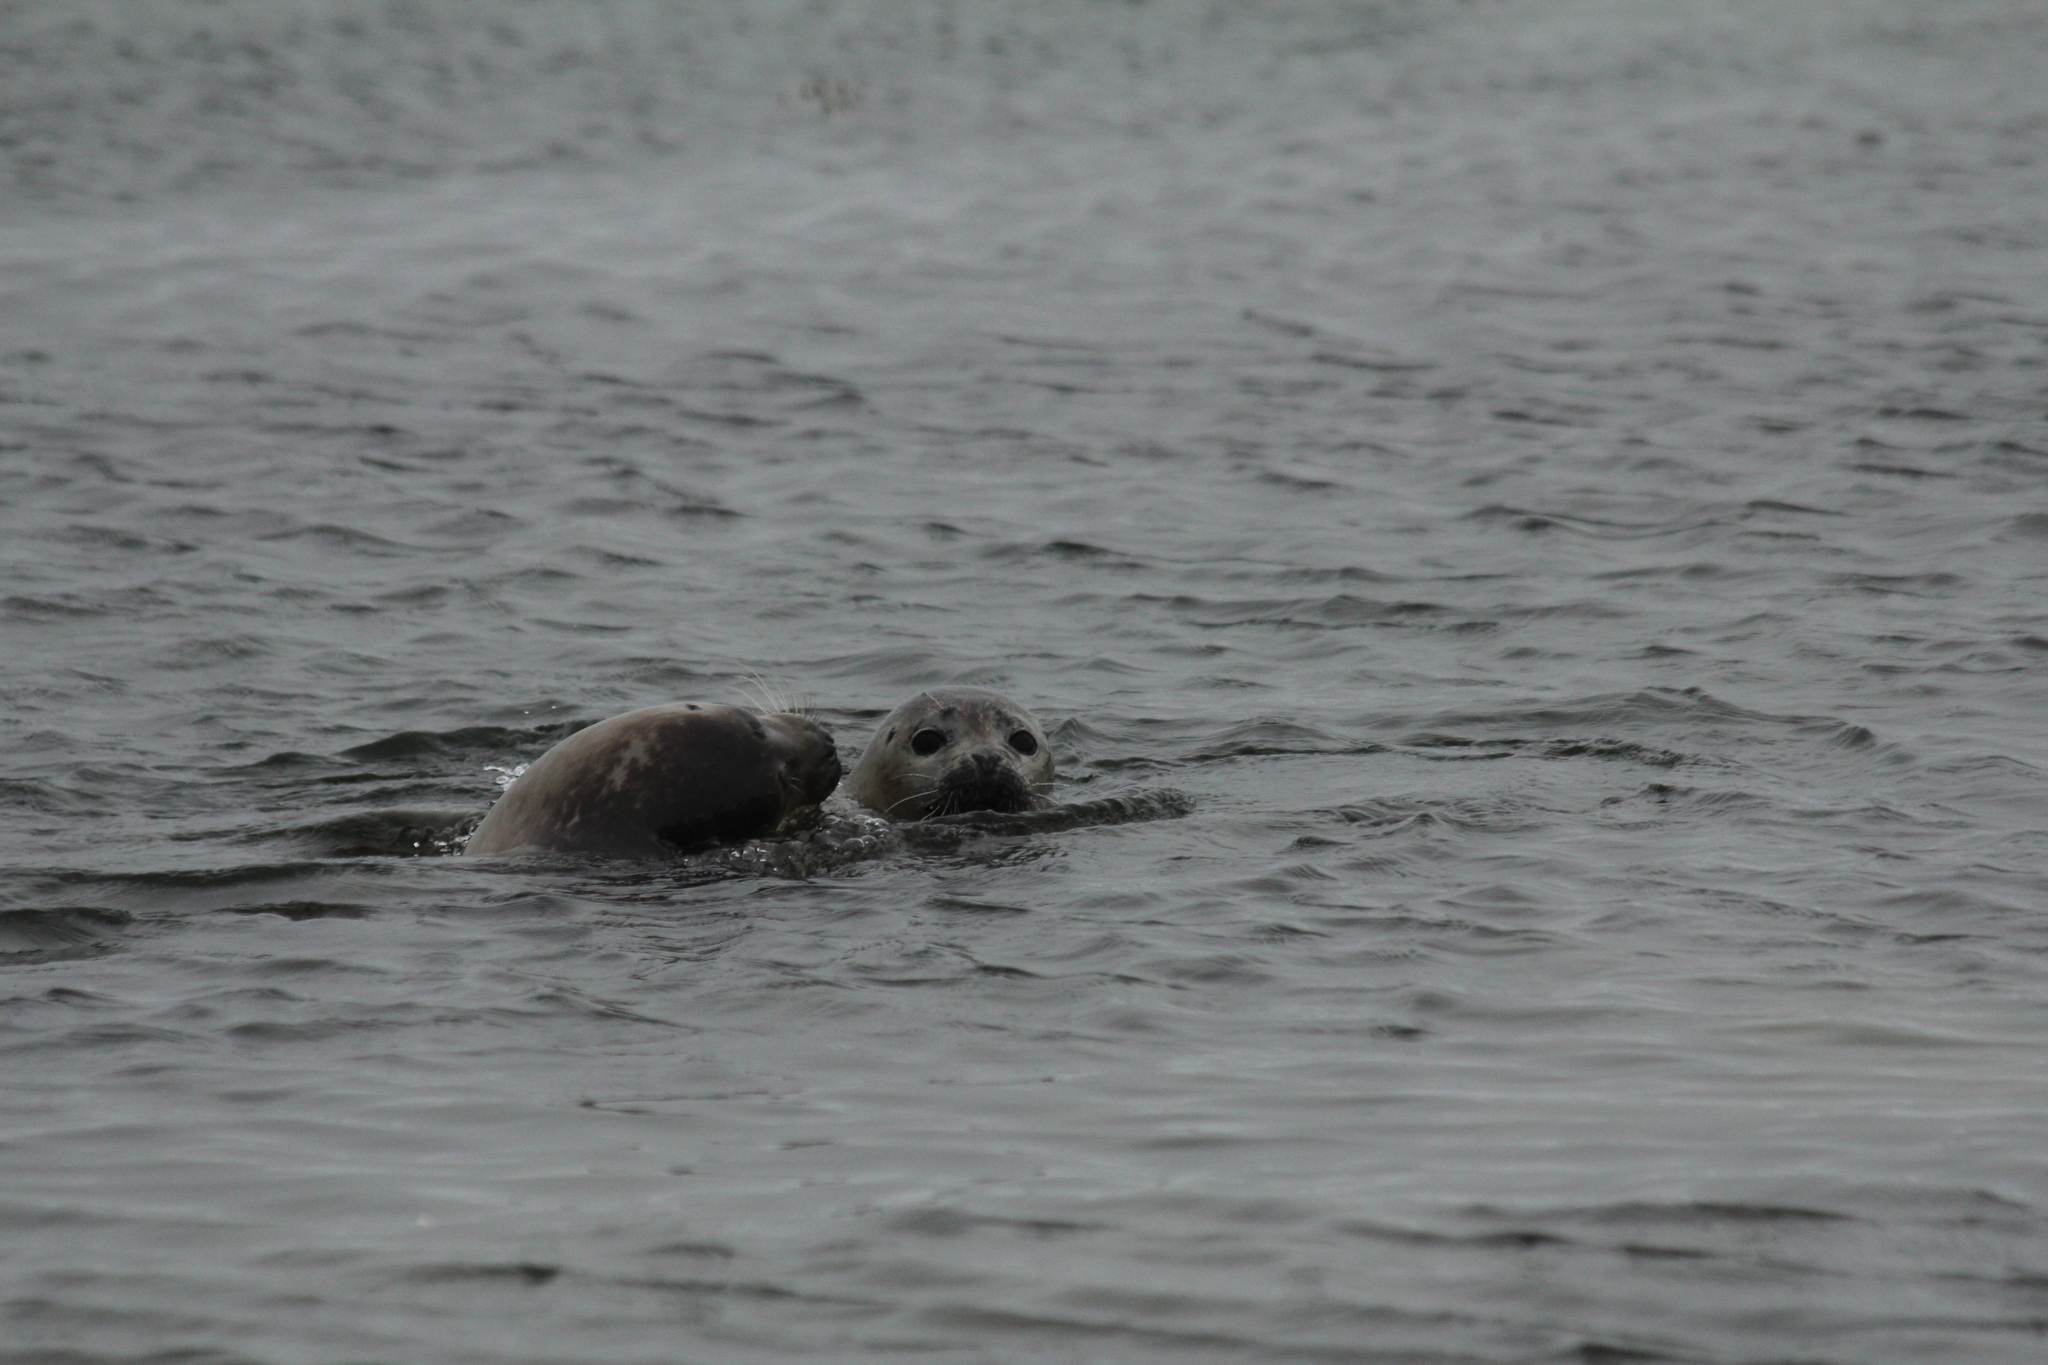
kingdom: Animalia
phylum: Chordata
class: Mammalia
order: Carnivora
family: Phocidae
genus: Phoca
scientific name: Phoca vitulina
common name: Harbor seal
